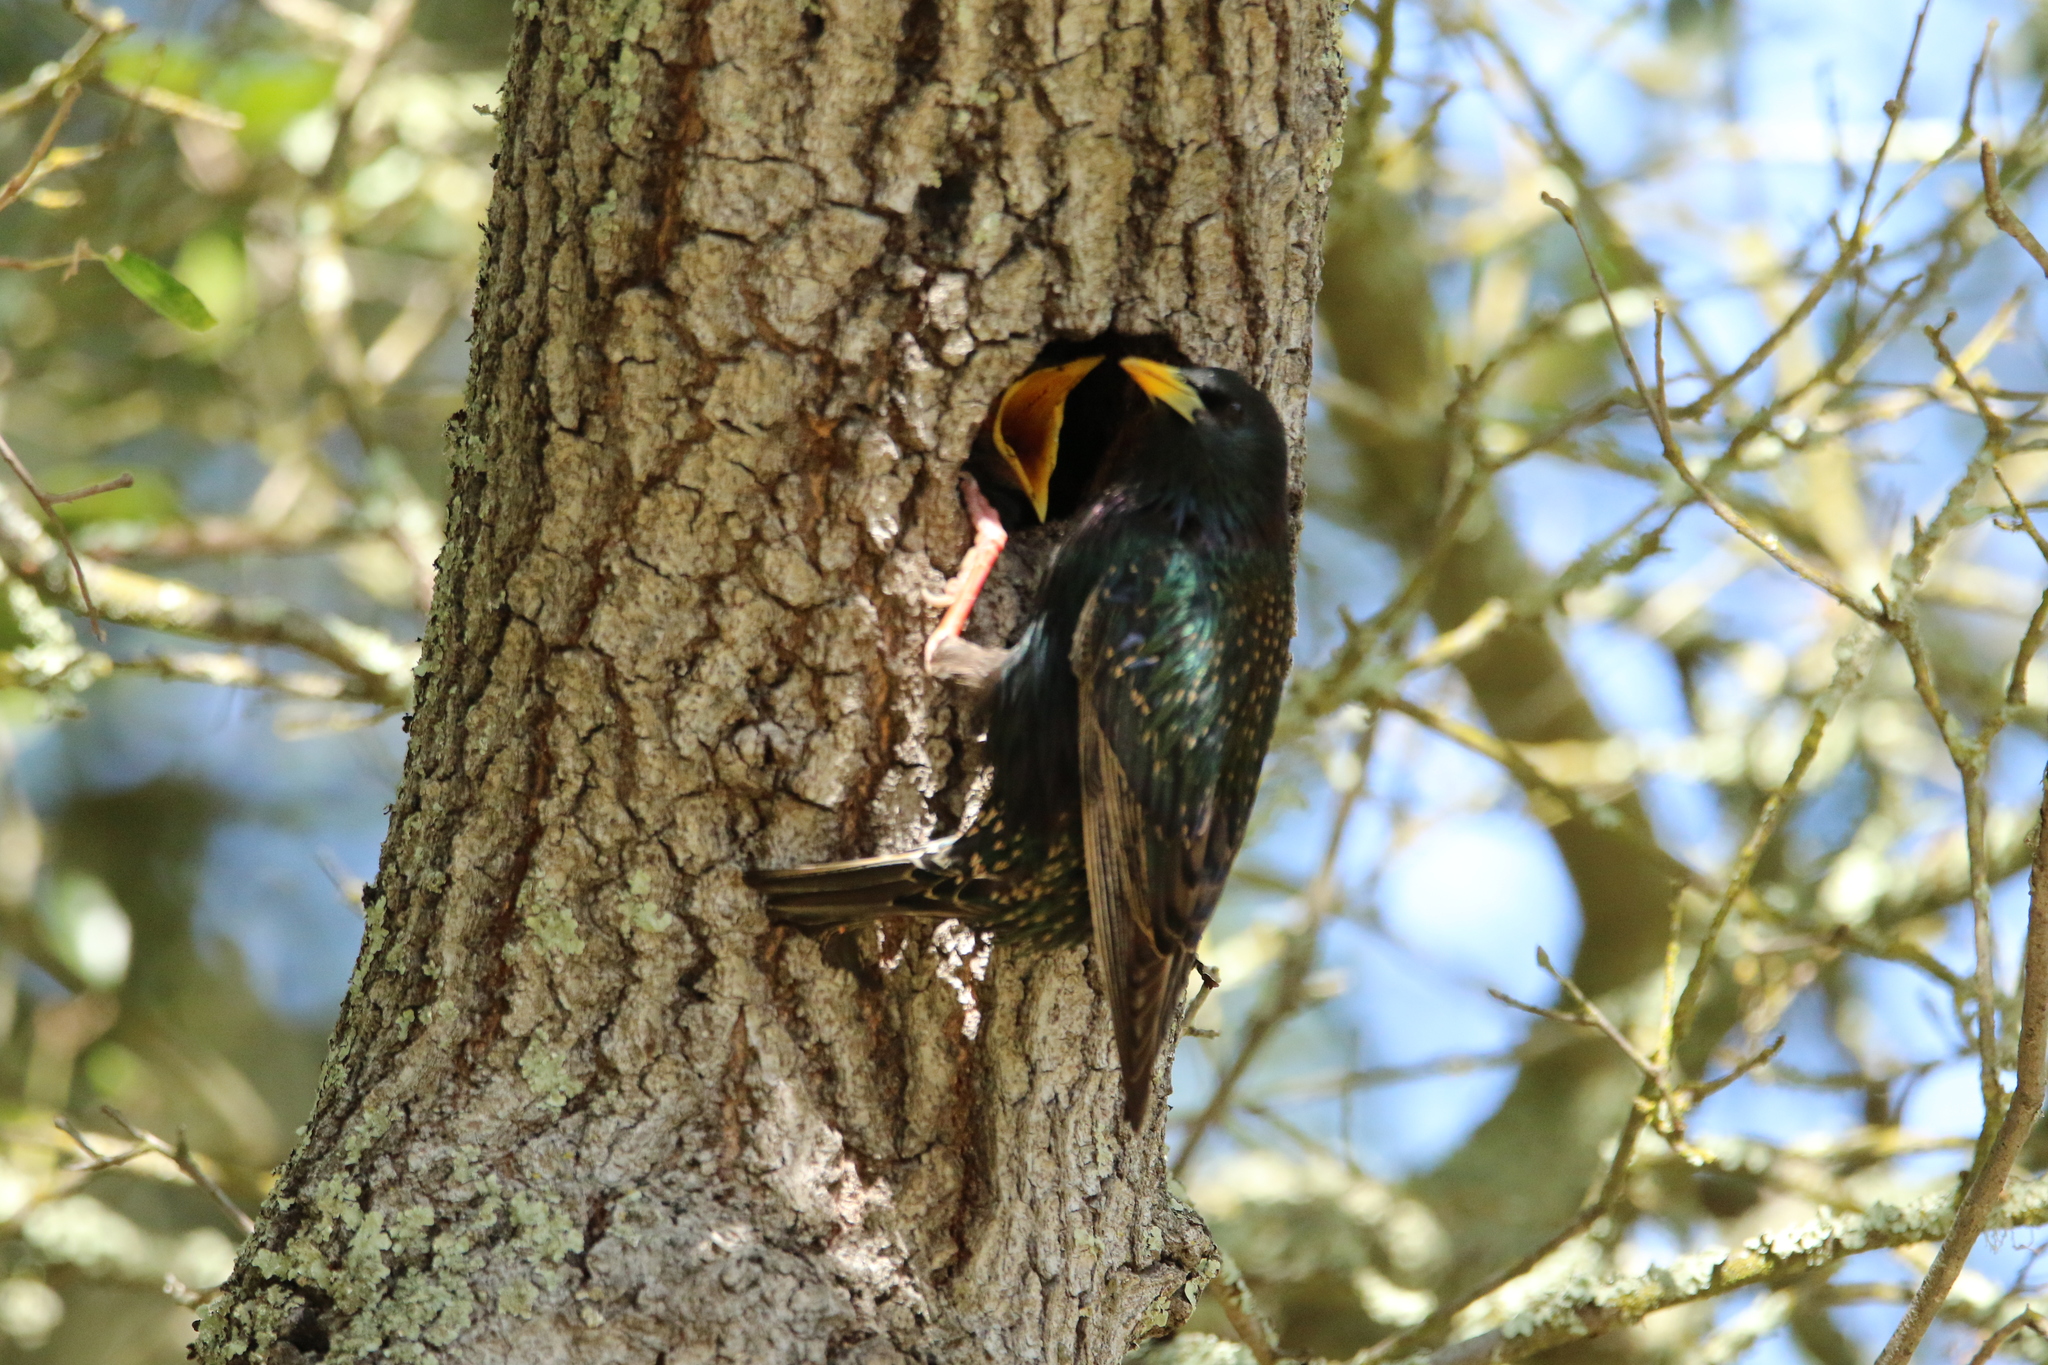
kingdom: Animalia
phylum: Chordata
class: Aves
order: Passeriformes
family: Sturnidae
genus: Sturnus
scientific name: Sturnus vulgaris
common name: Common starling
